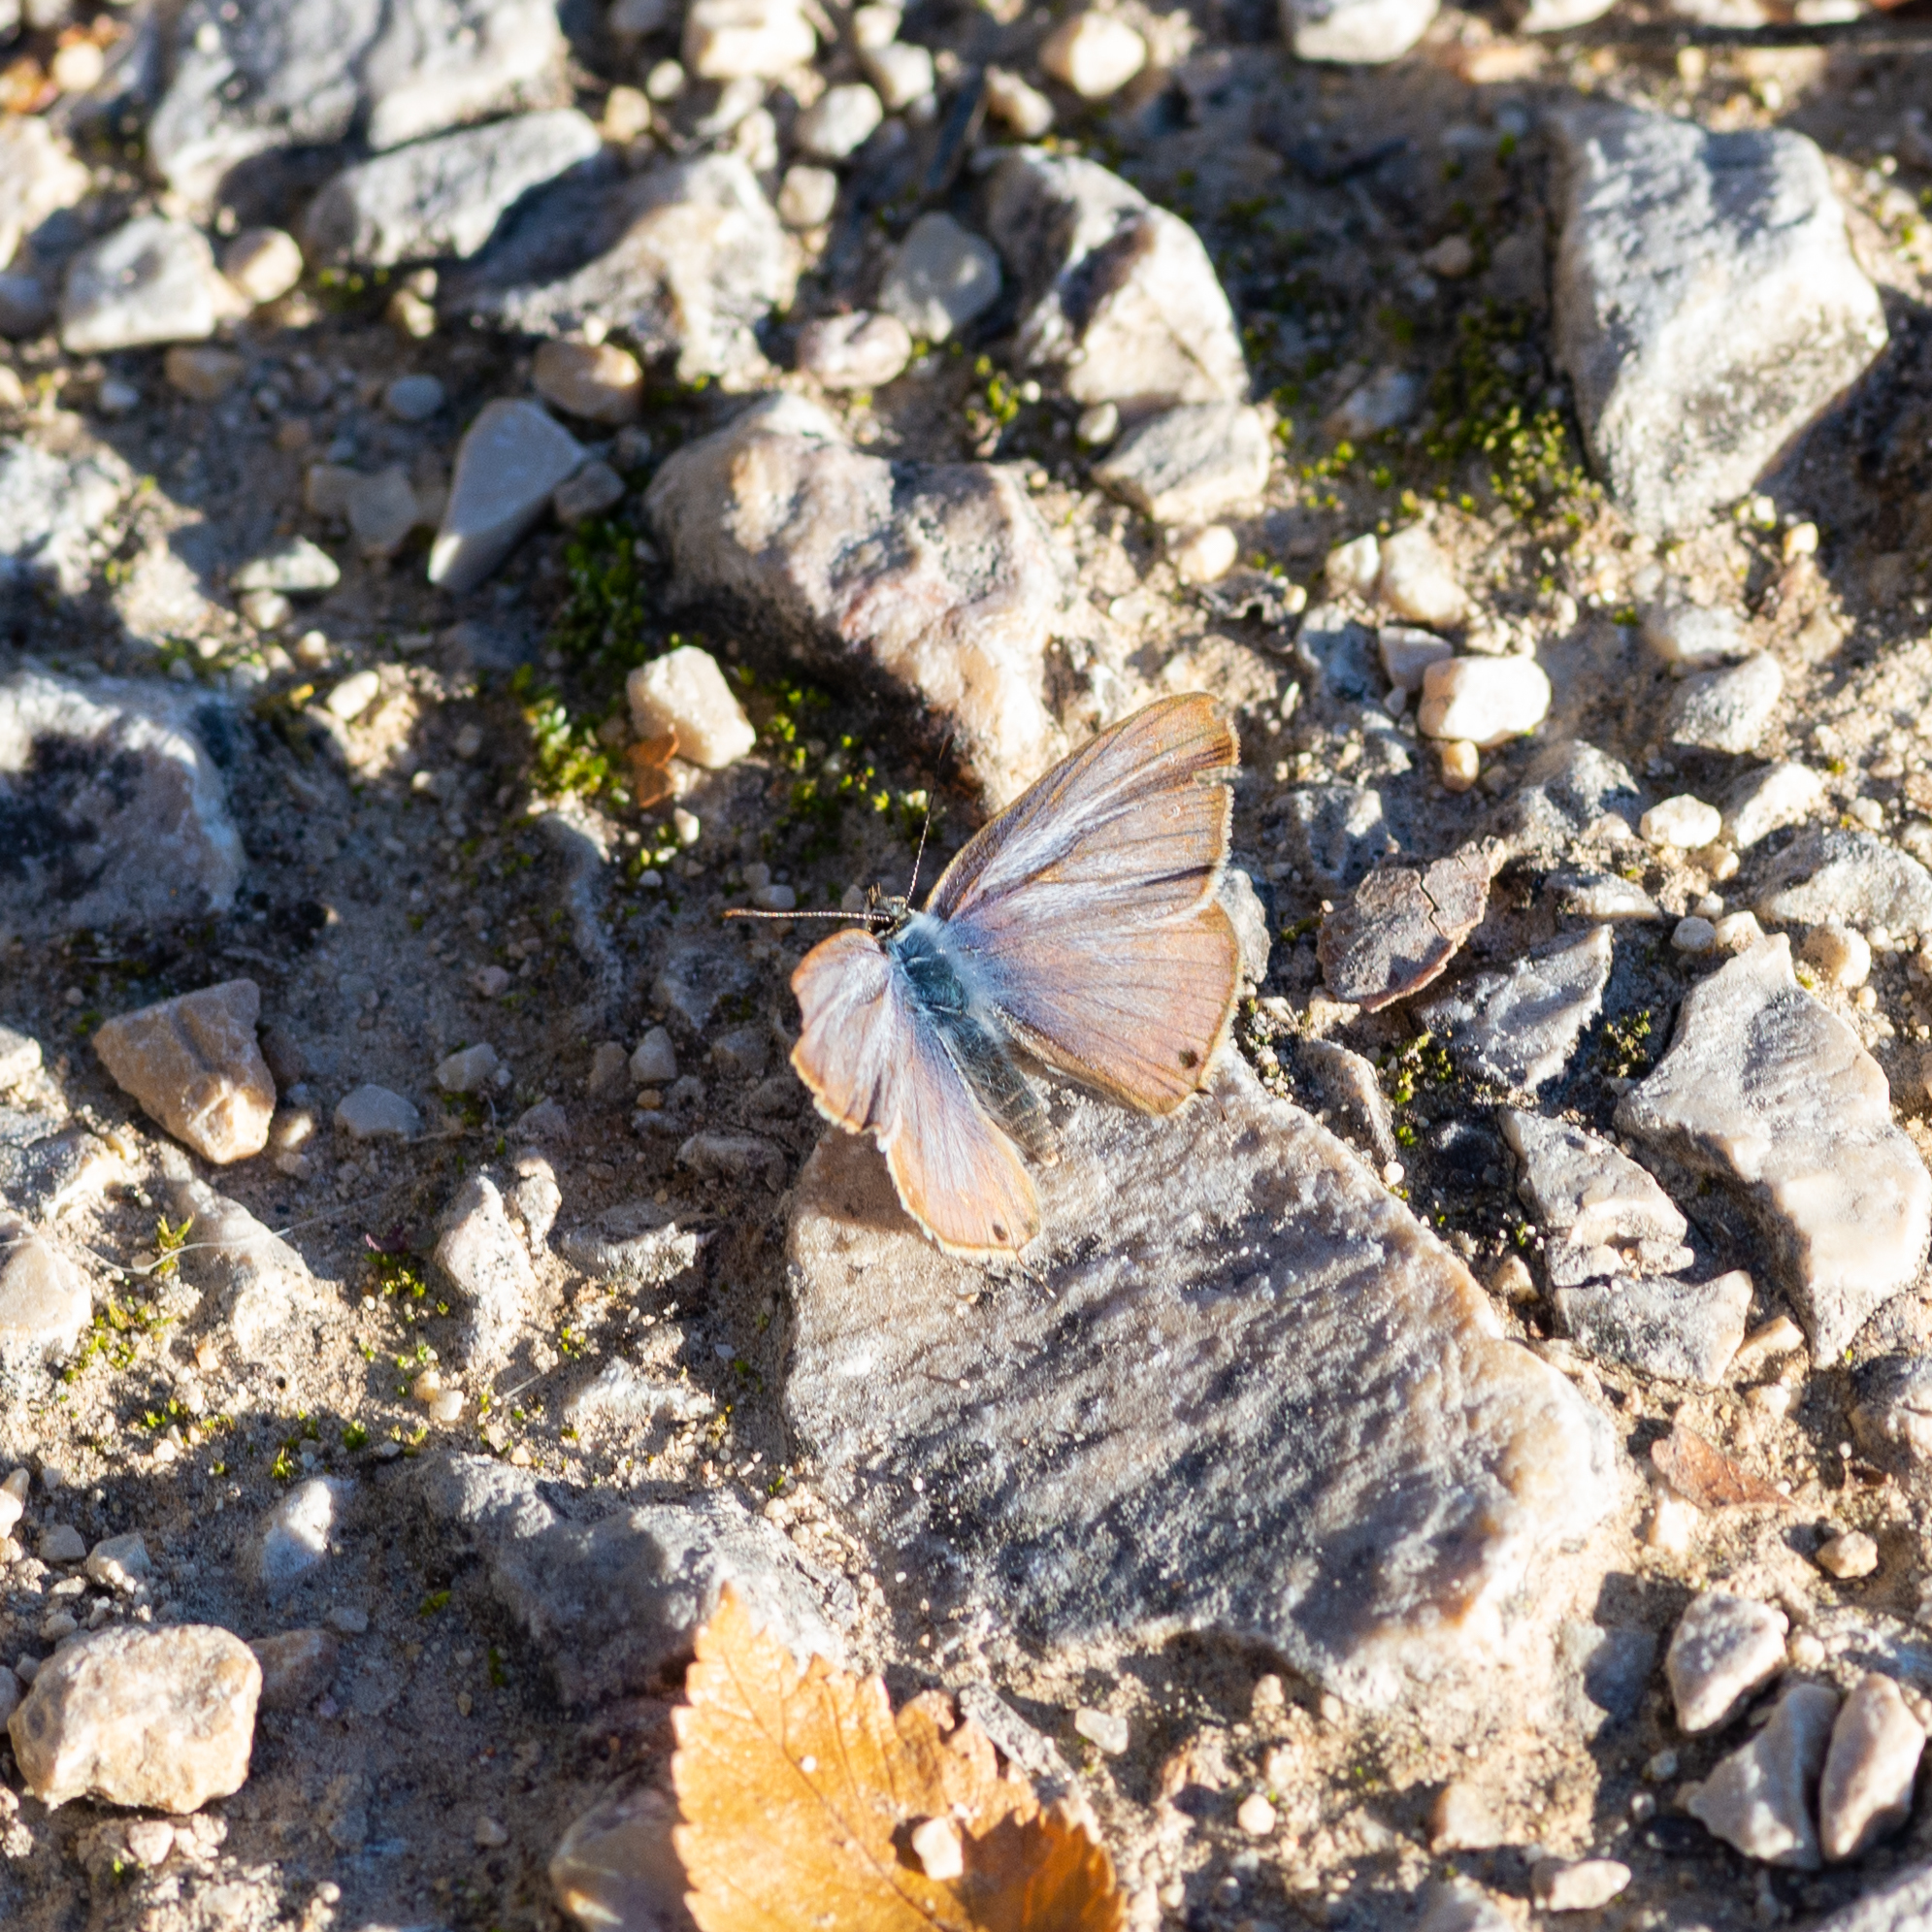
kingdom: Animalia
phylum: Arthropoda
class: Insecta
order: Lepidoptera
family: Lycaenidae
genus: Lampides
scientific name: Lampides boeticus
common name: Long-tailed blue
